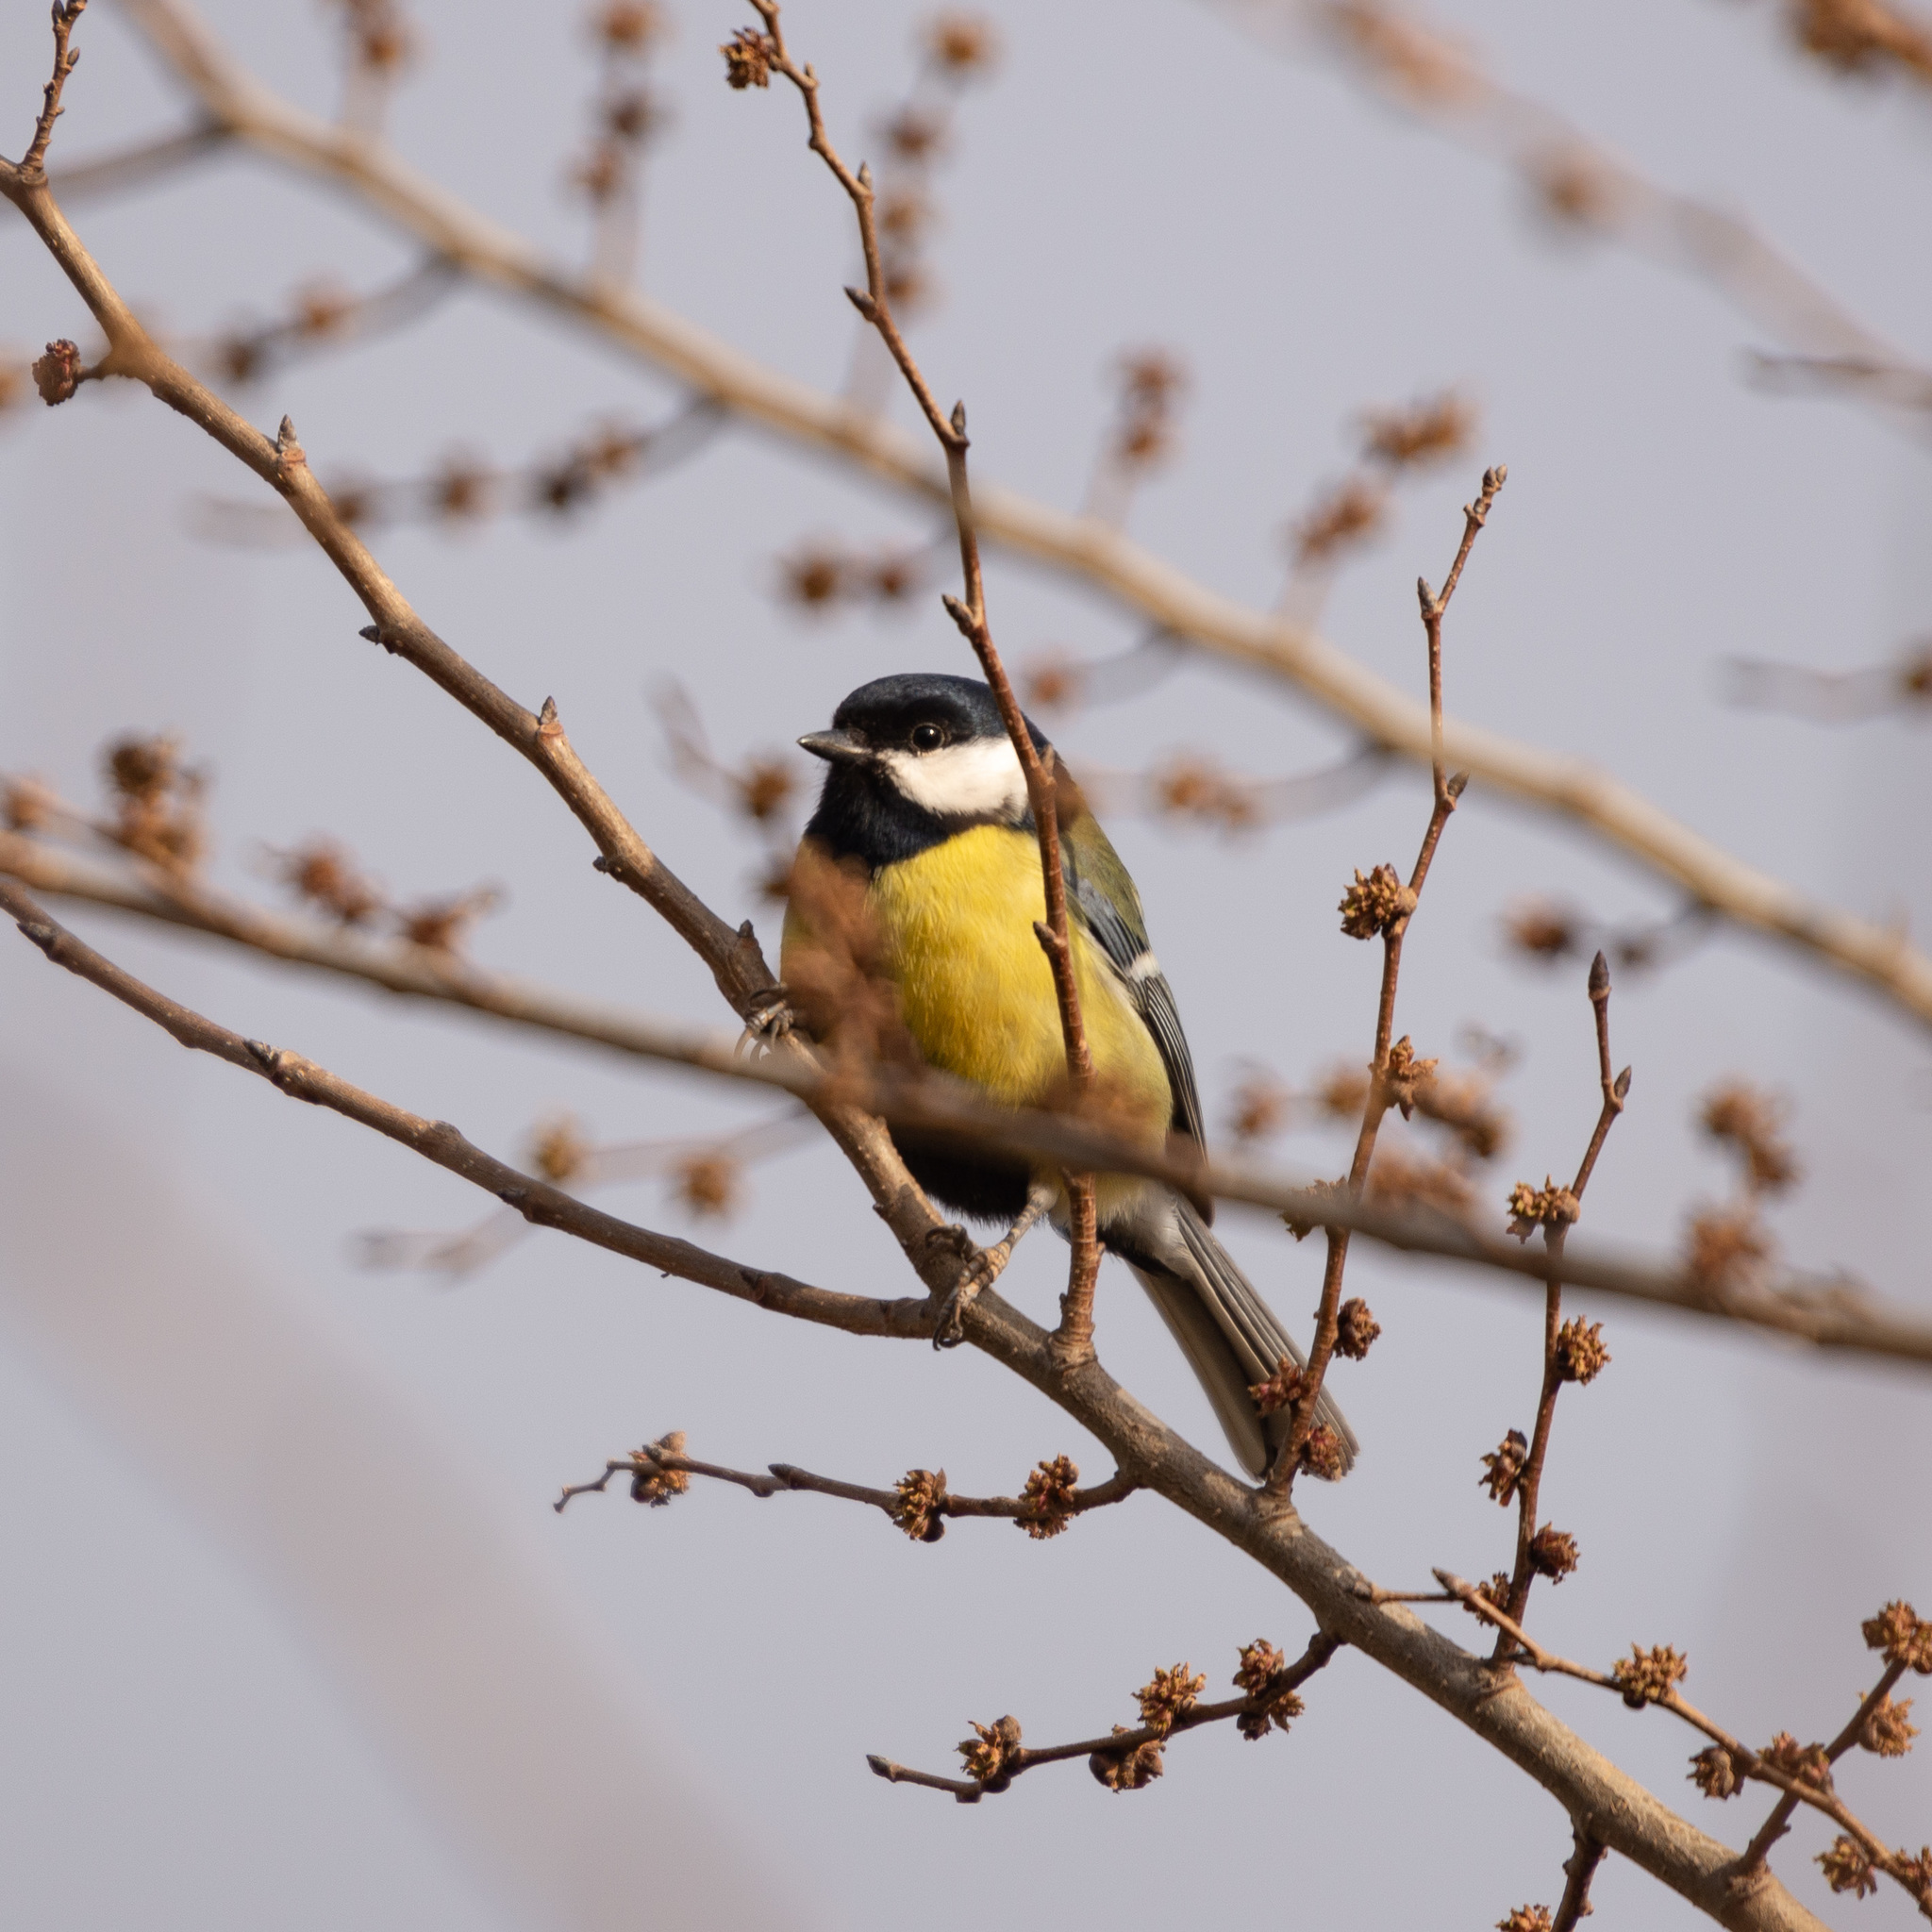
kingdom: Animalia
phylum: Chordata
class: Aves
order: Passeriformes
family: Paridae
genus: Parus
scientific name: Parus major
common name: Great tit
